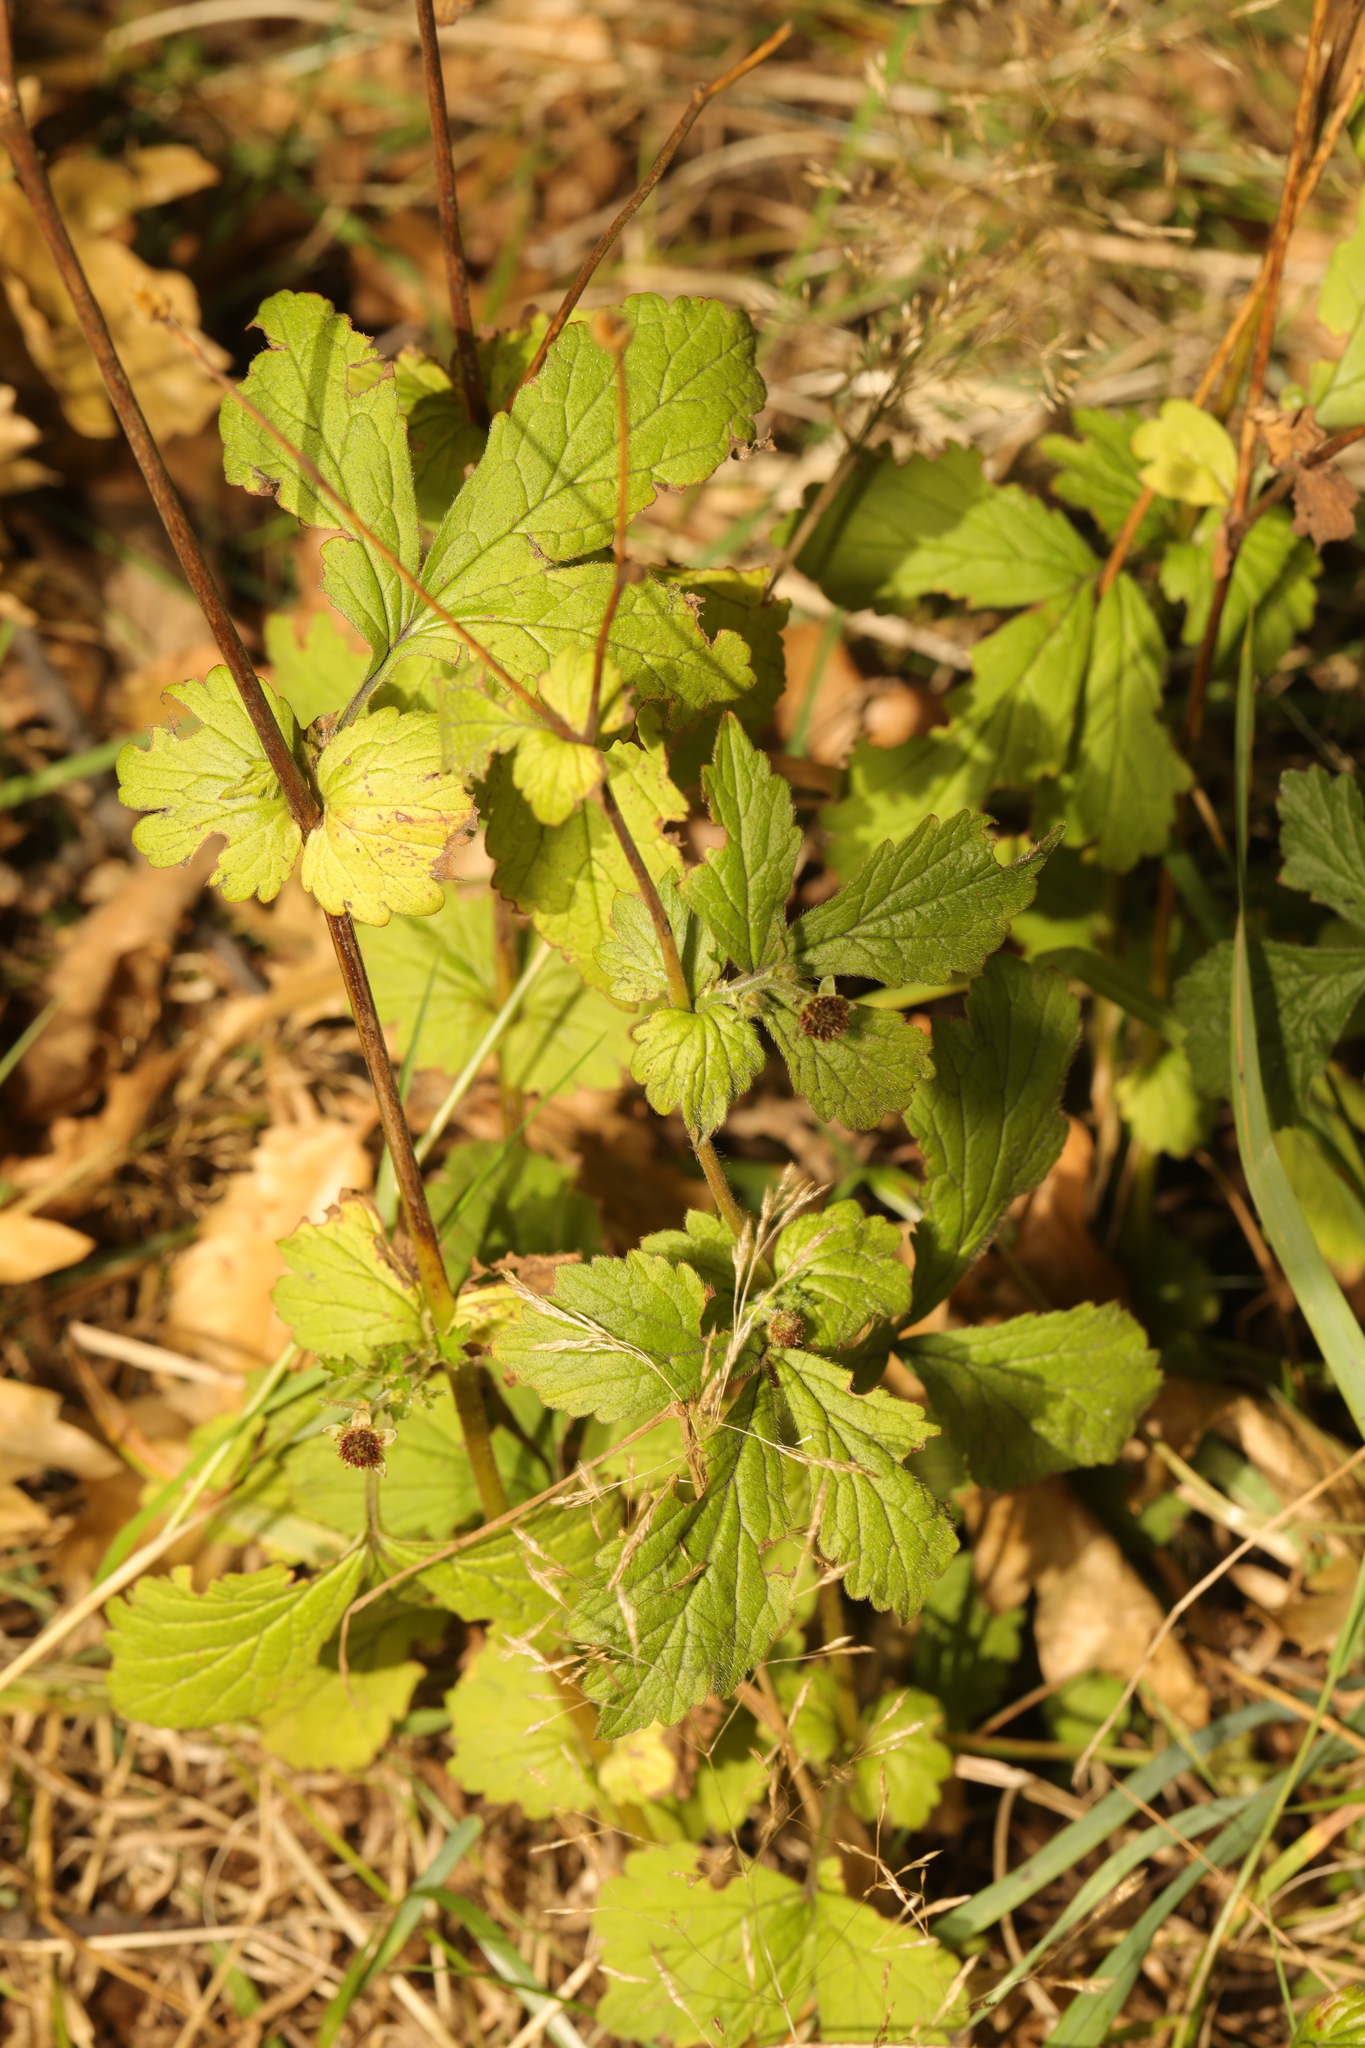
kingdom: Plantae
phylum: Tracheophyta
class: Magnoliopsida
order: Rosales
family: Rosaceae
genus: Geum
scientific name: Geum urbanum
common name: Wood avens
